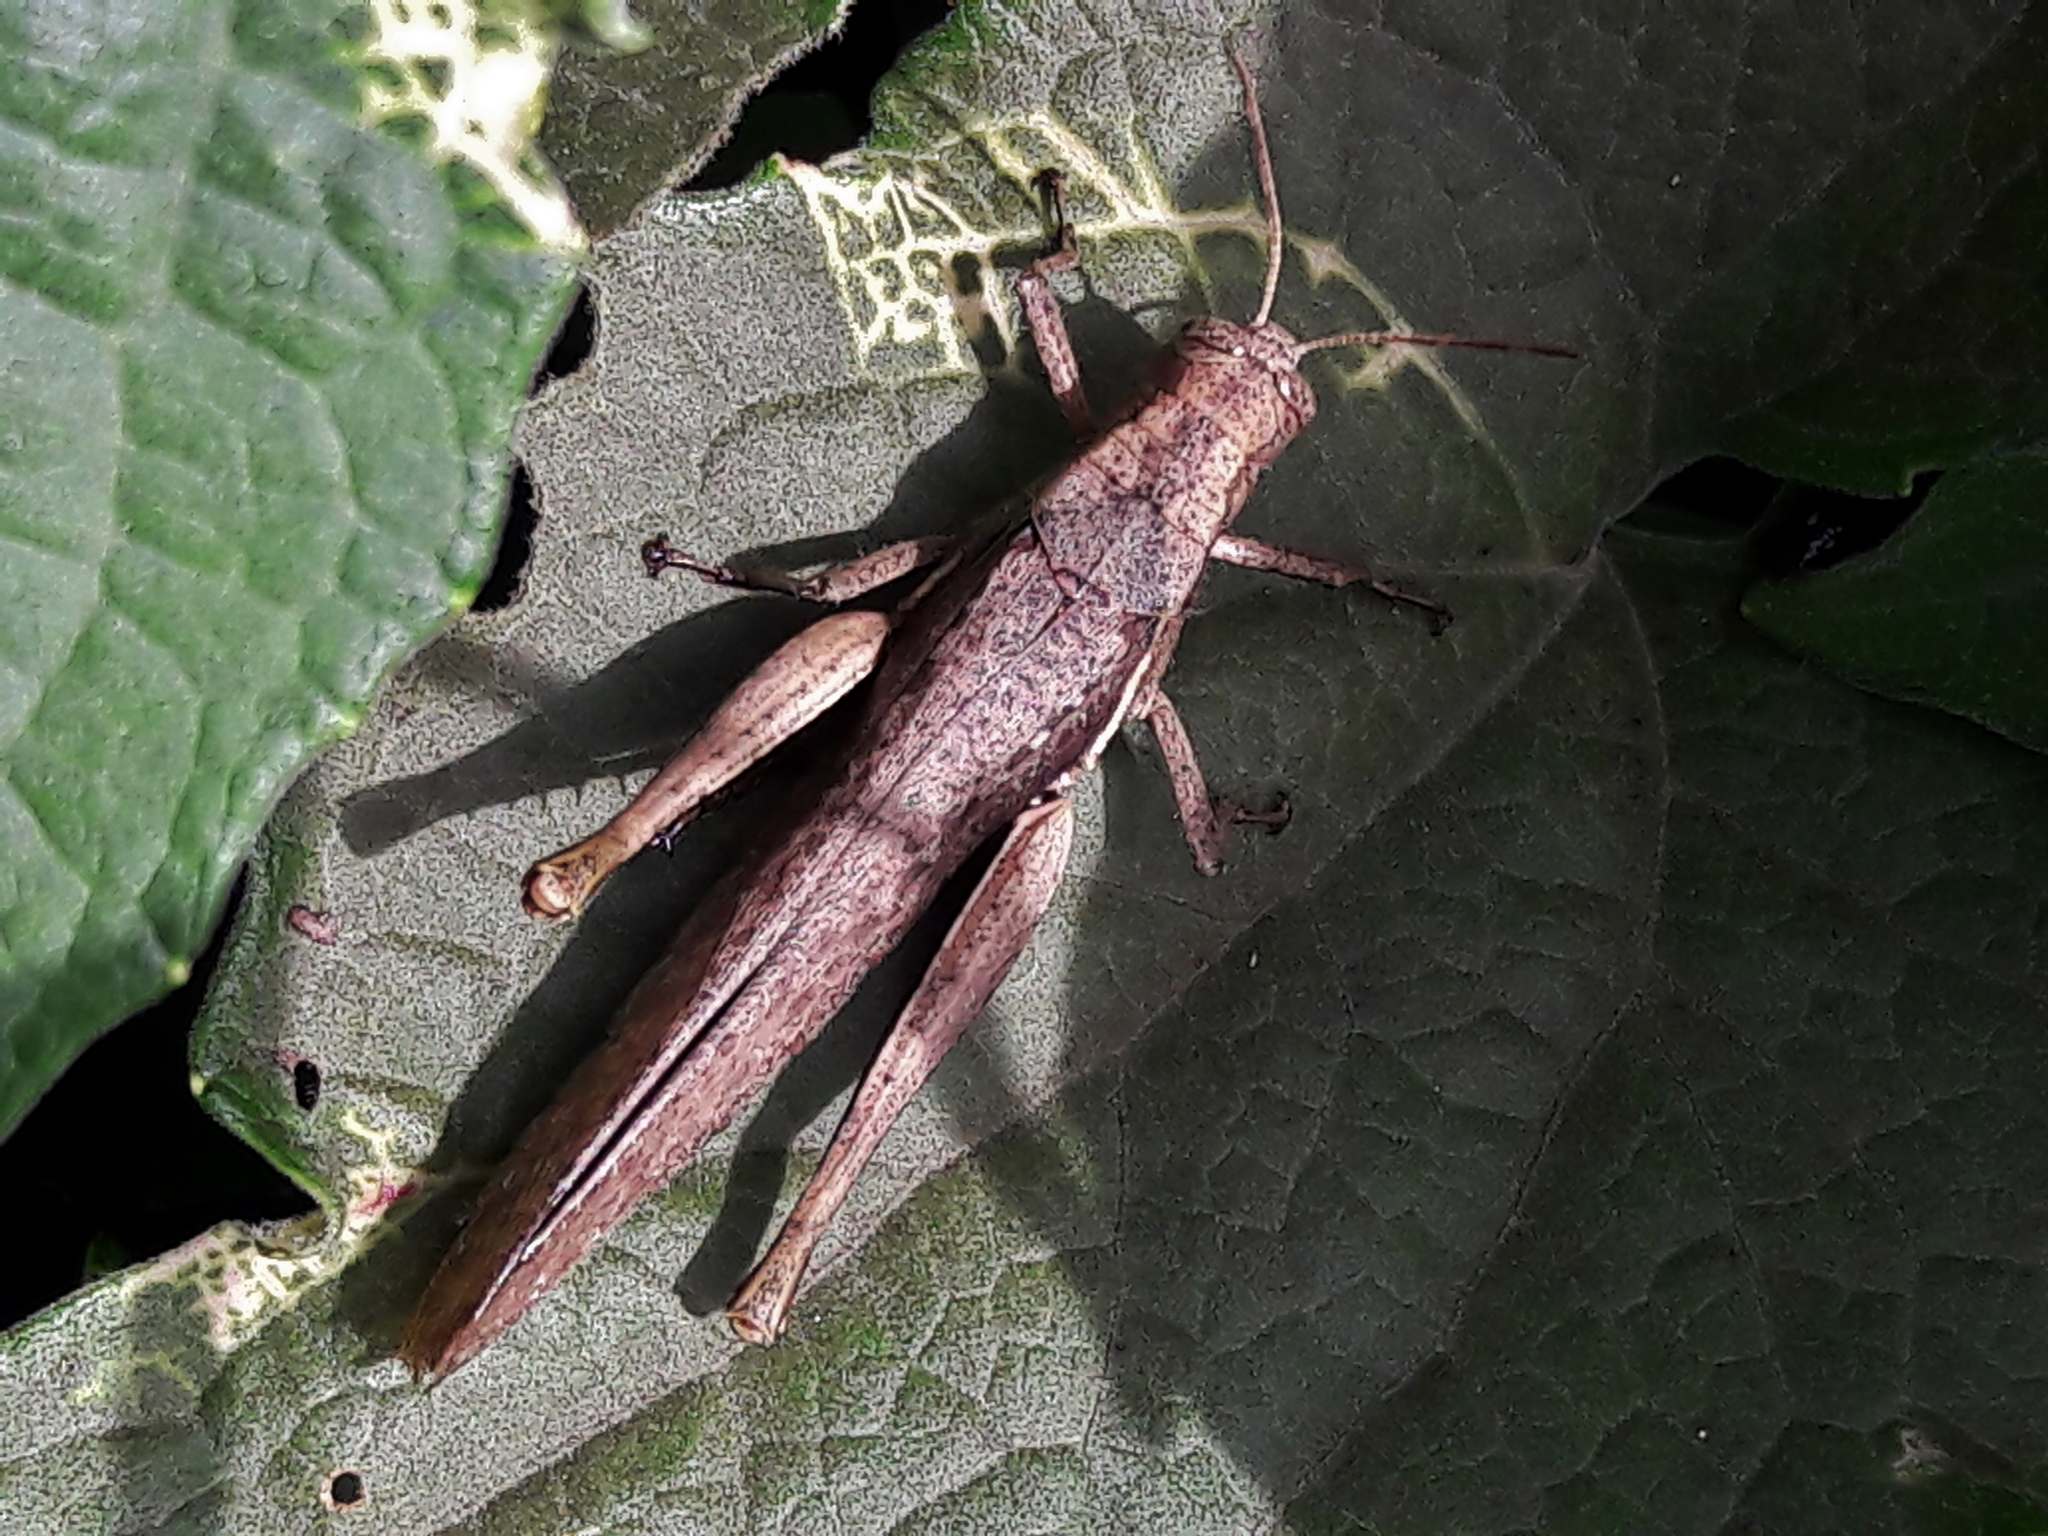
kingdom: Animalia
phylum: Arthropoda
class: Insecta
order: Orthoptera
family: Acrididae
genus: Abracris
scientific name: Abracris flavolineata
